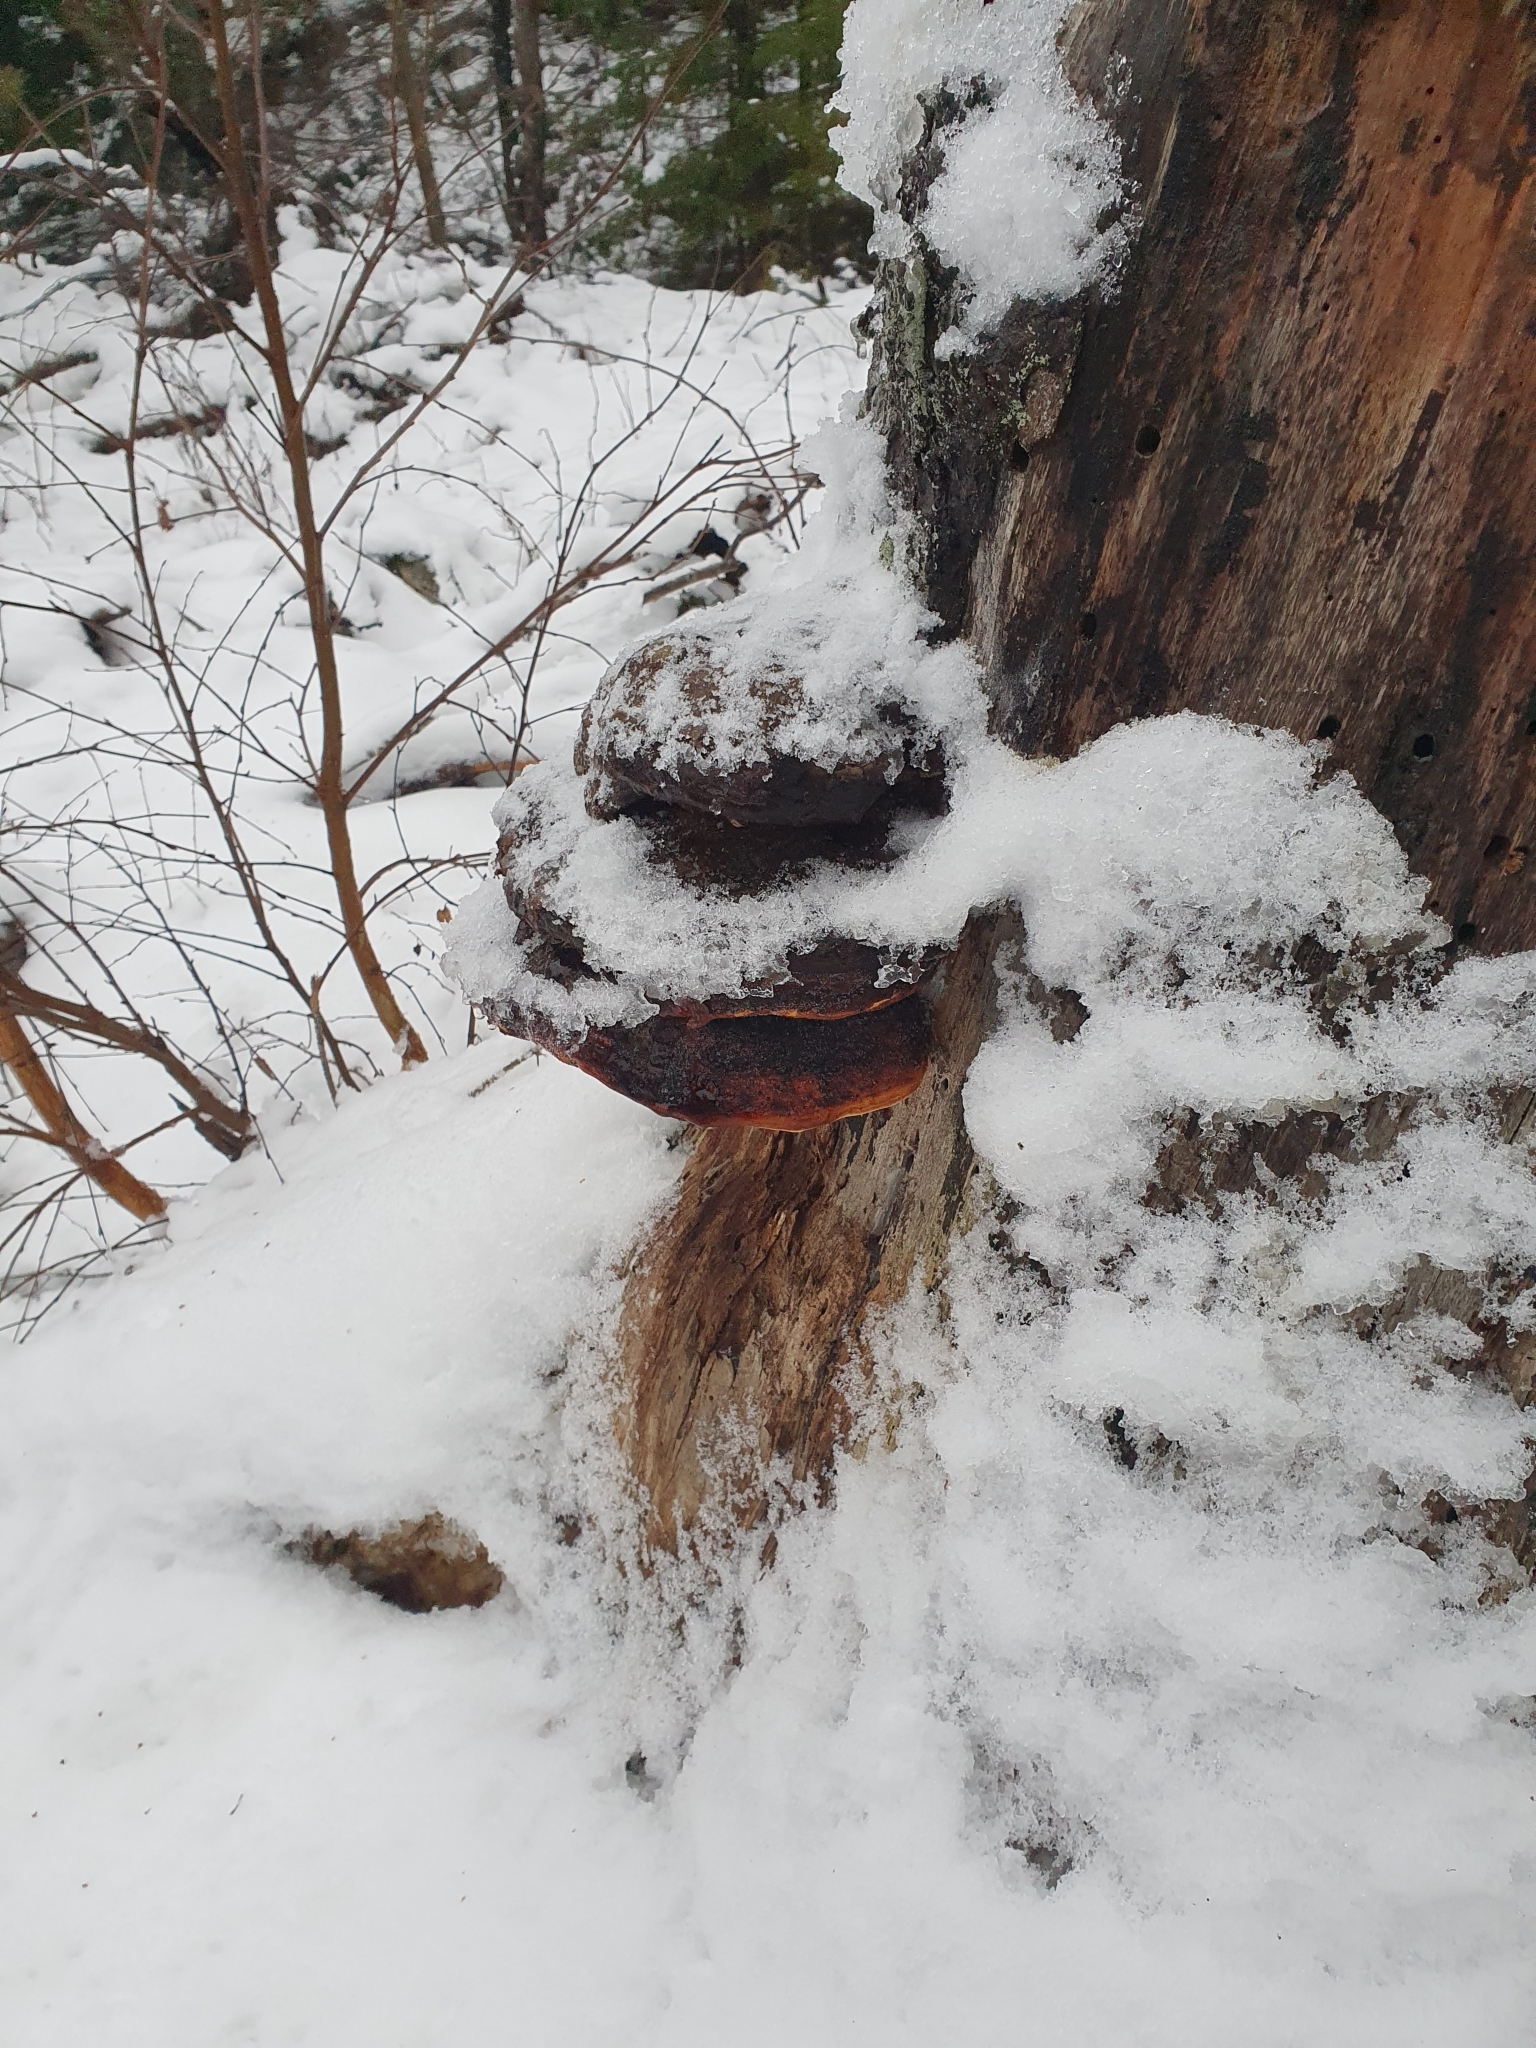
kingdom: Fungi
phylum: Basidiomycota
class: Agaricomycetes
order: Polyporales
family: Fomitopsidaceae
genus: Fomitopsis
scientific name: Fomitopsis pinicola
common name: Red-belted bracket
